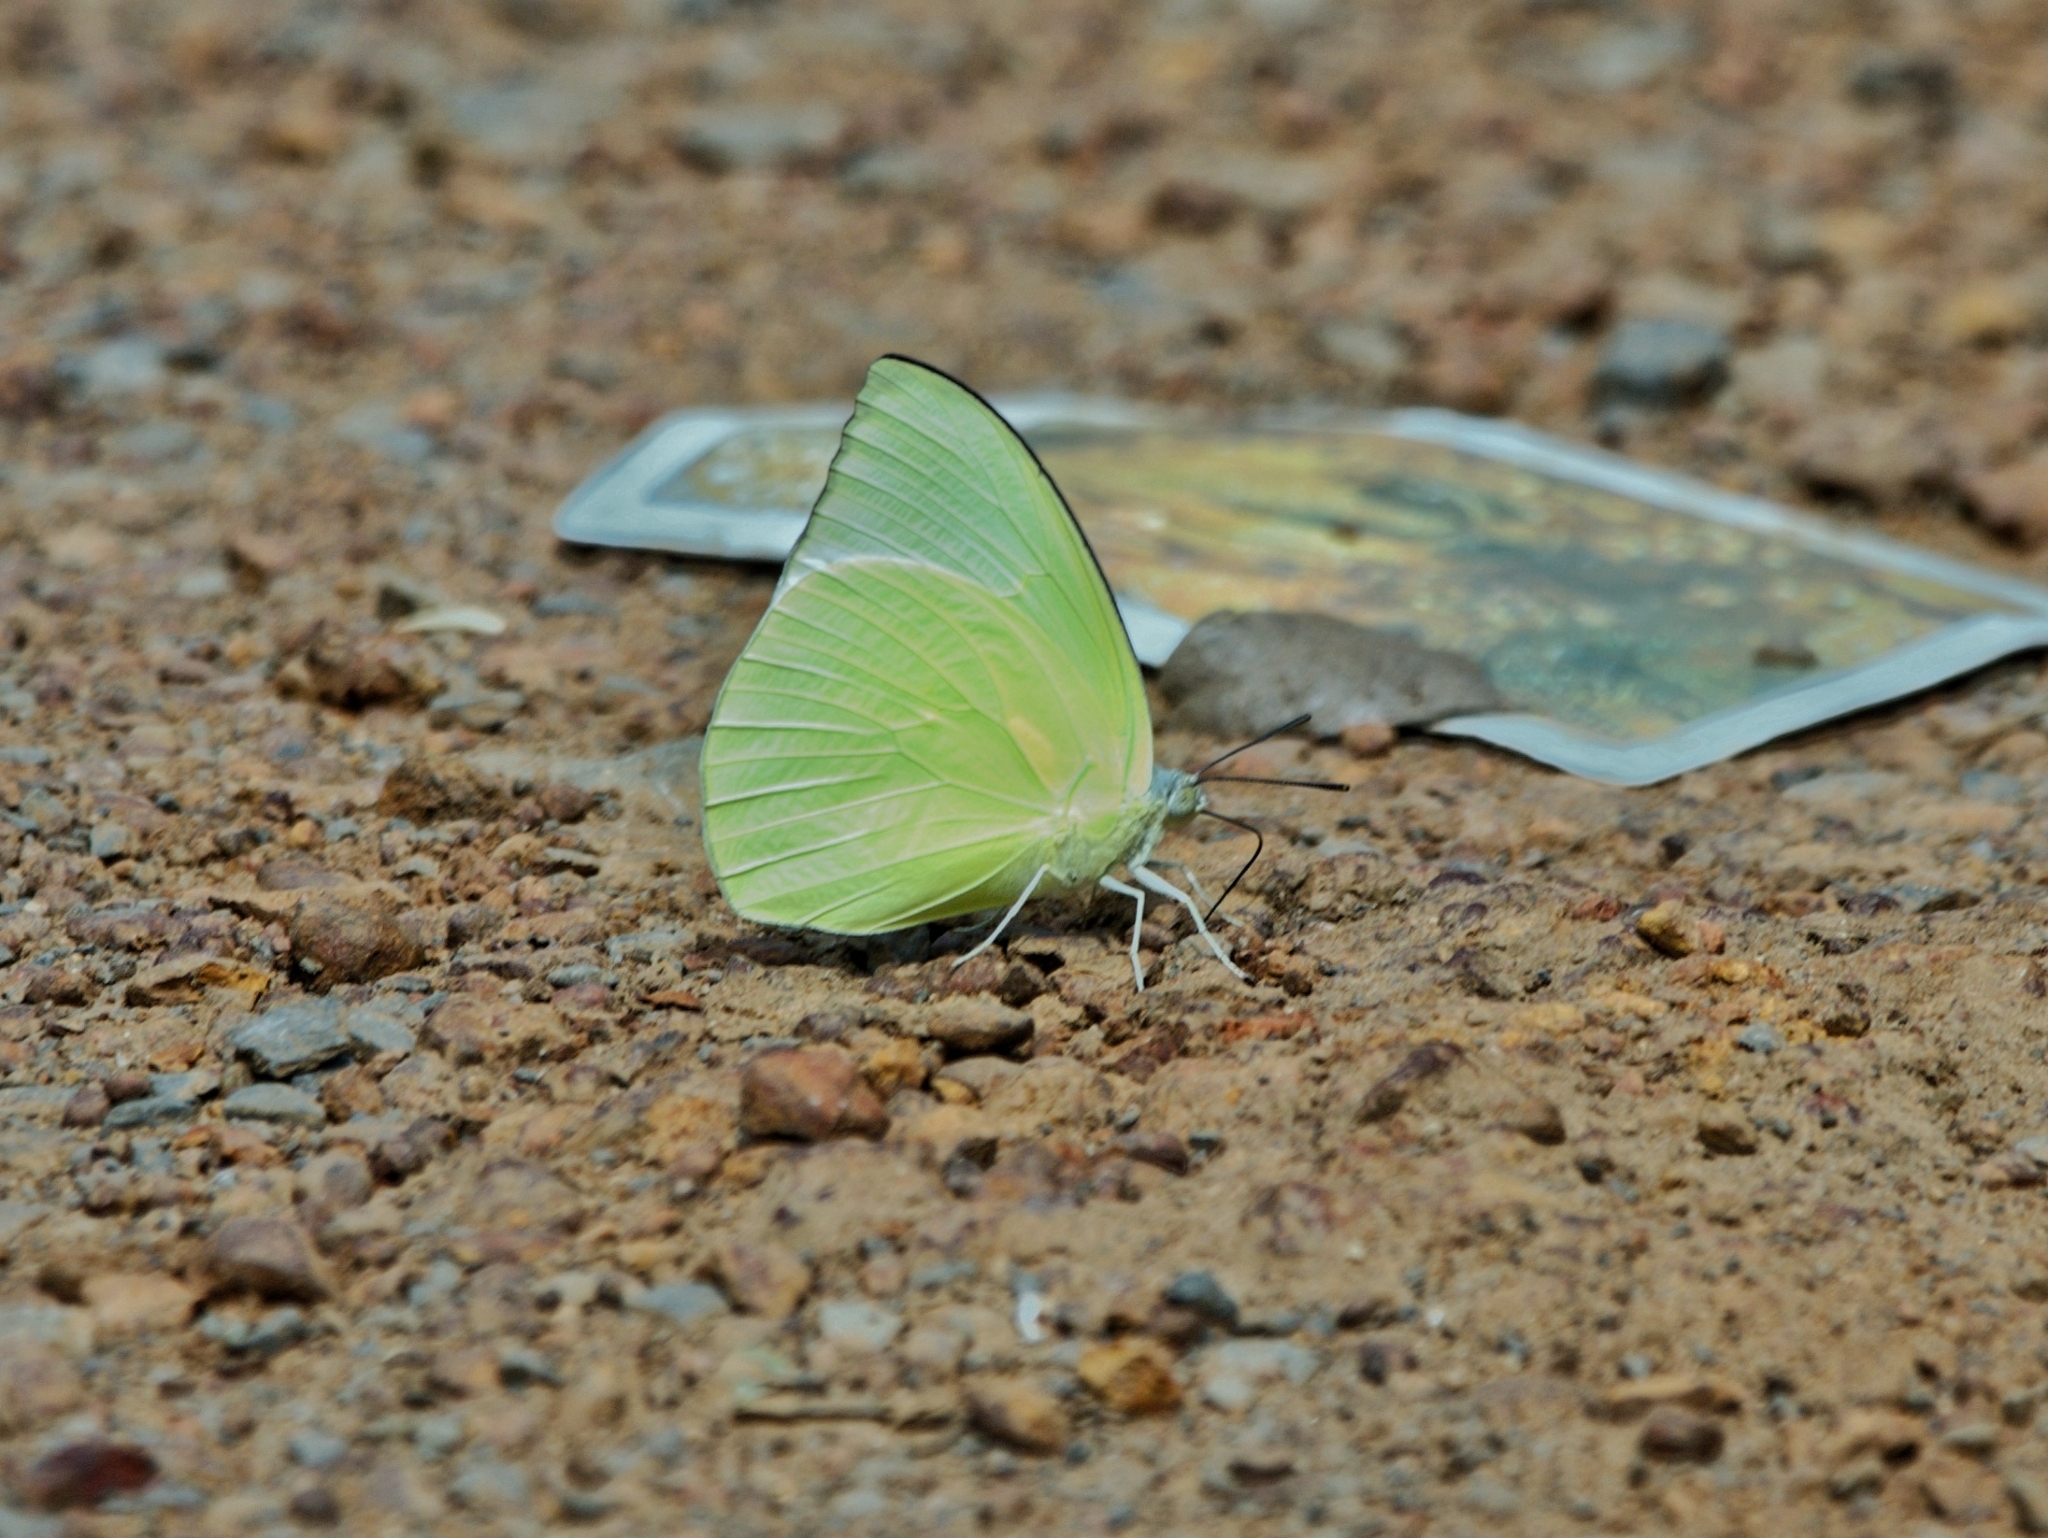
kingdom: Animalia
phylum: Arthropoda
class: Insecta
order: Lepidoptera
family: Pieridae
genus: Catopsilia
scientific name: Catopsilia pomona
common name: Common emigrant
